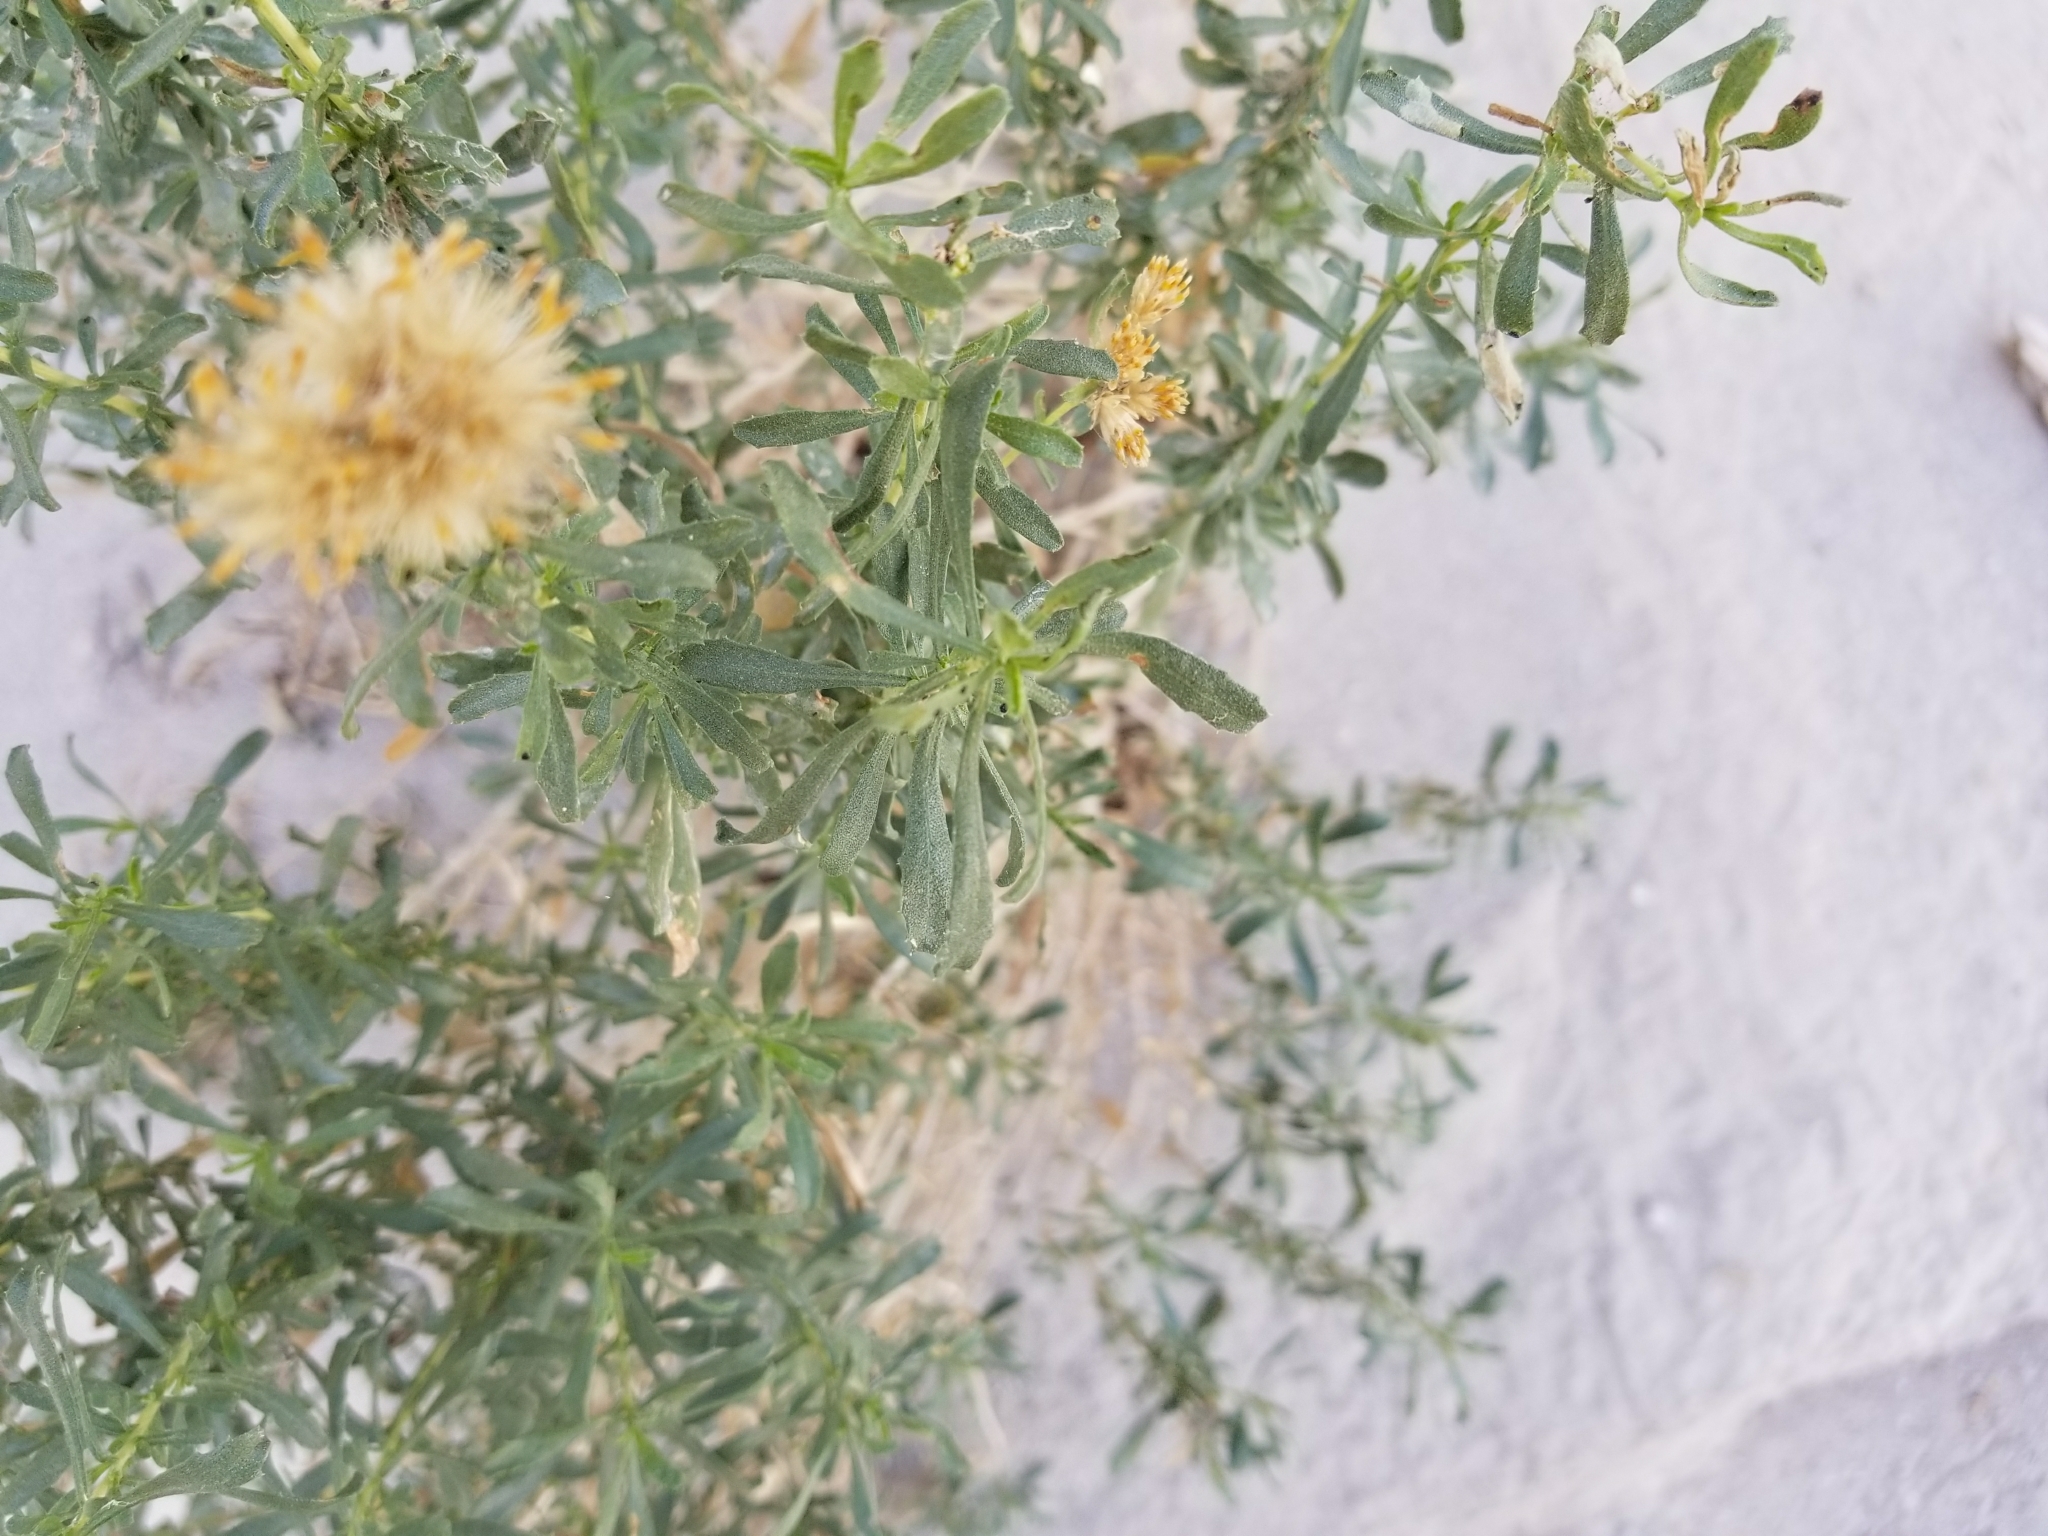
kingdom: Plantae
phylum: Tracheophyta
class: Magnoliopsida
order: Asterales
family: Asteraceae
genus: Isocoma
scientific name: Isocoma acradenia
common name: Alkali jimmyweed
